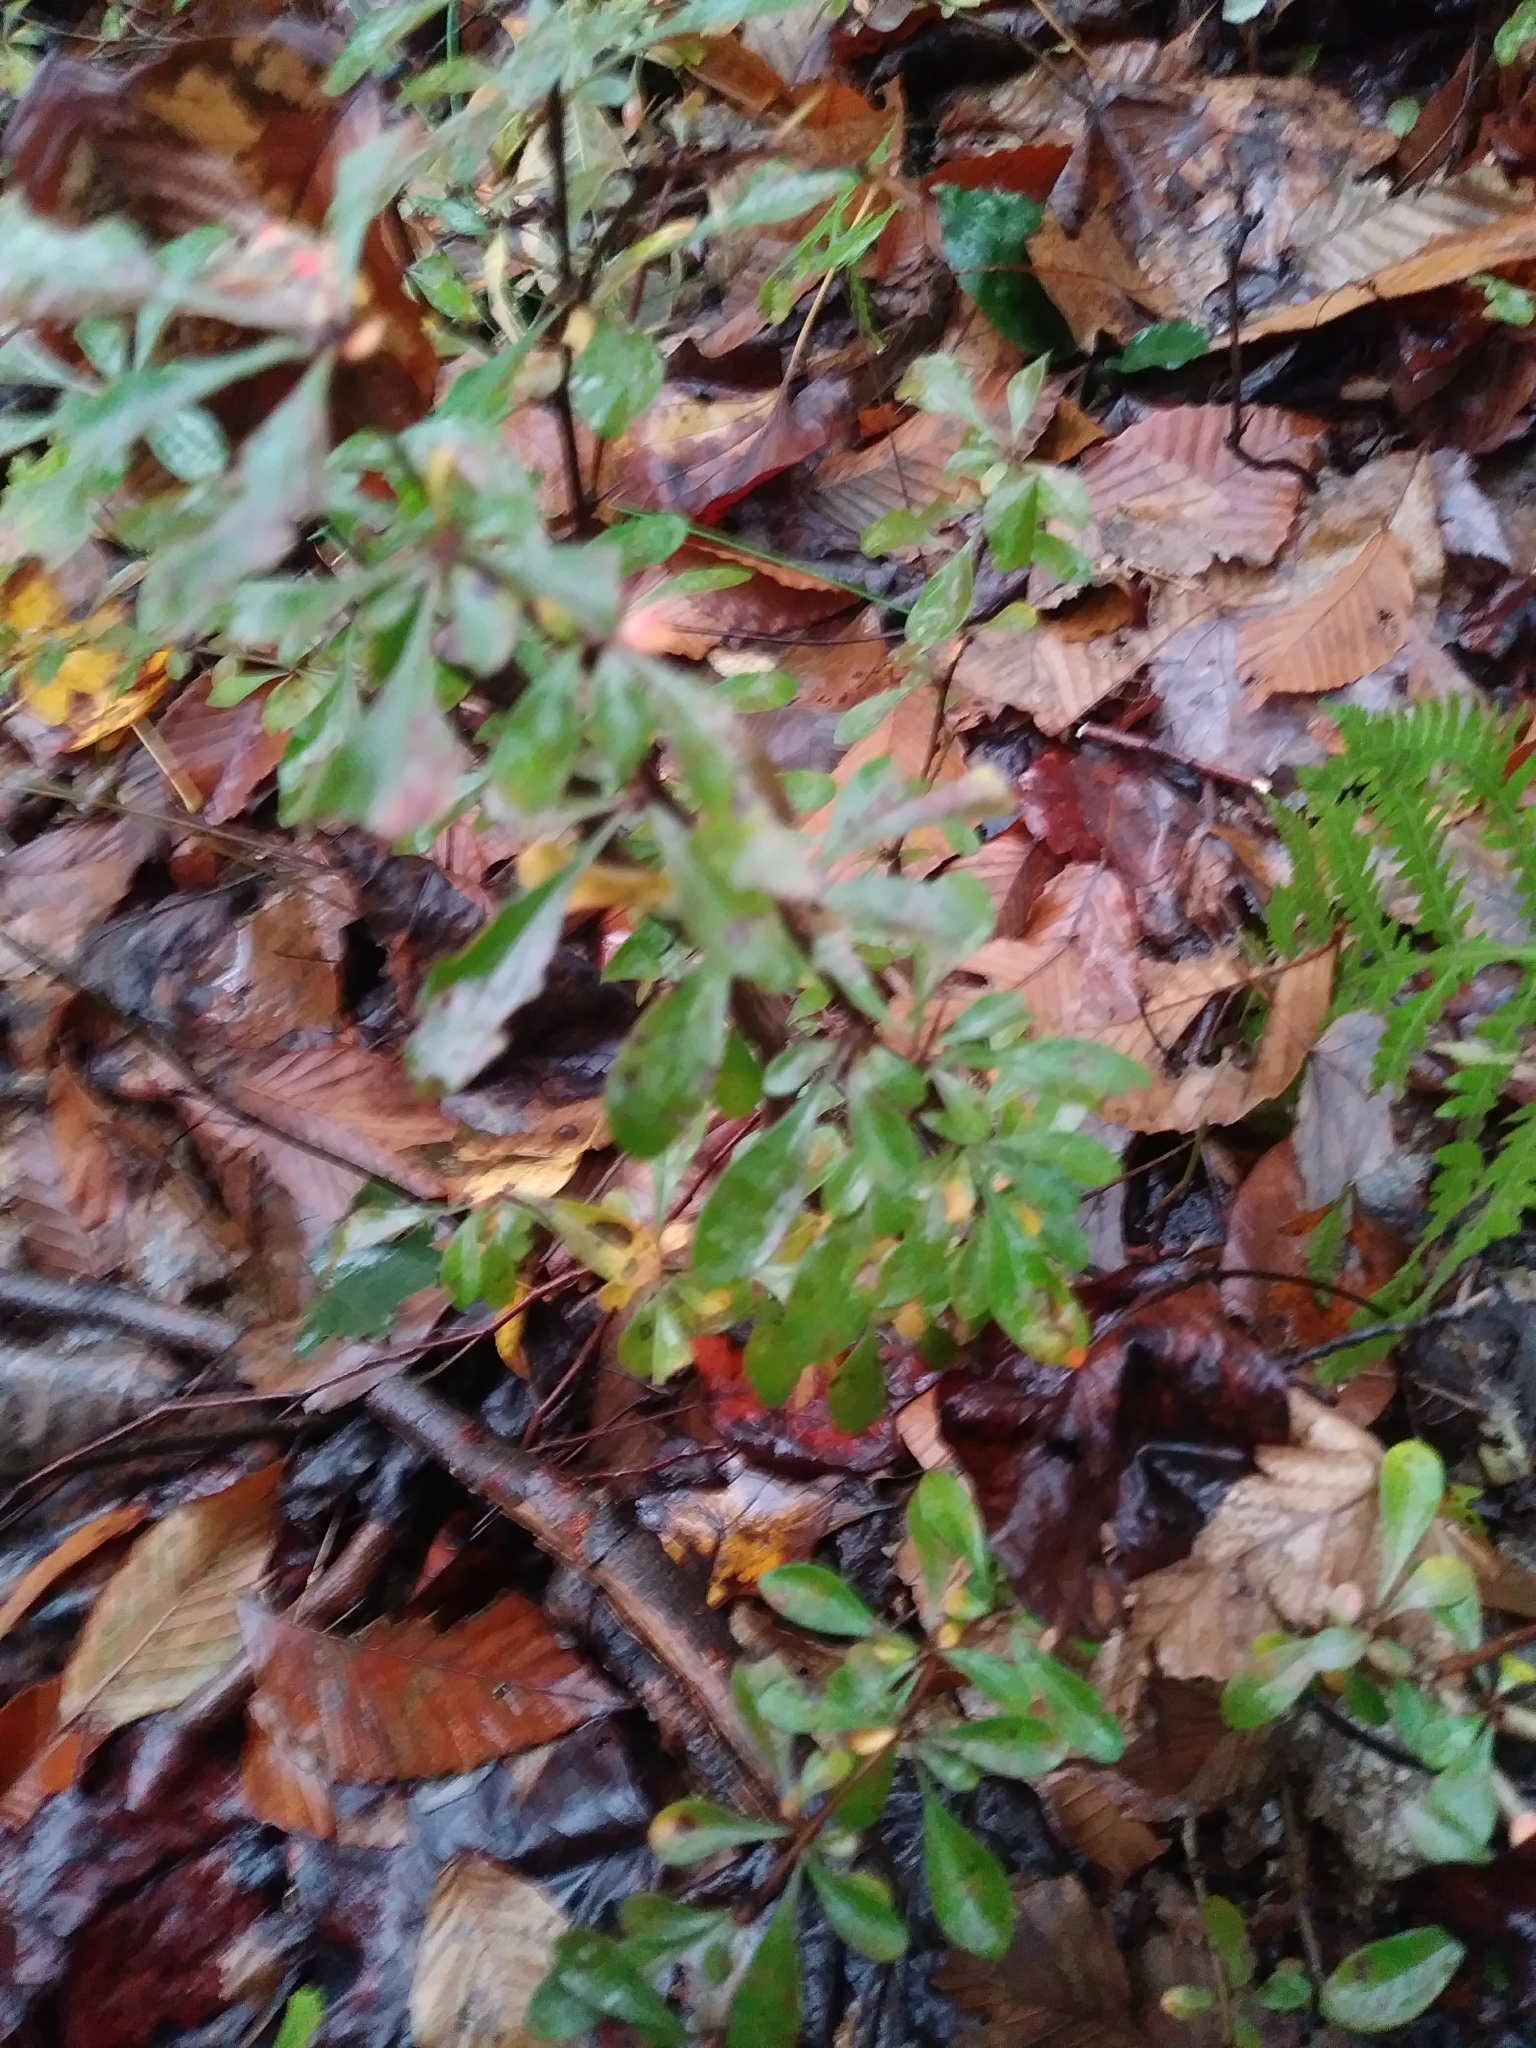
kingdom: Plantae
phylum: Tracheophyta
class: Magnoliopsida
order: Ranunculales
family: Berberidaceae
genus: Berberis
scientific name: Berberis thunbergii
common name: Japanese barberry
